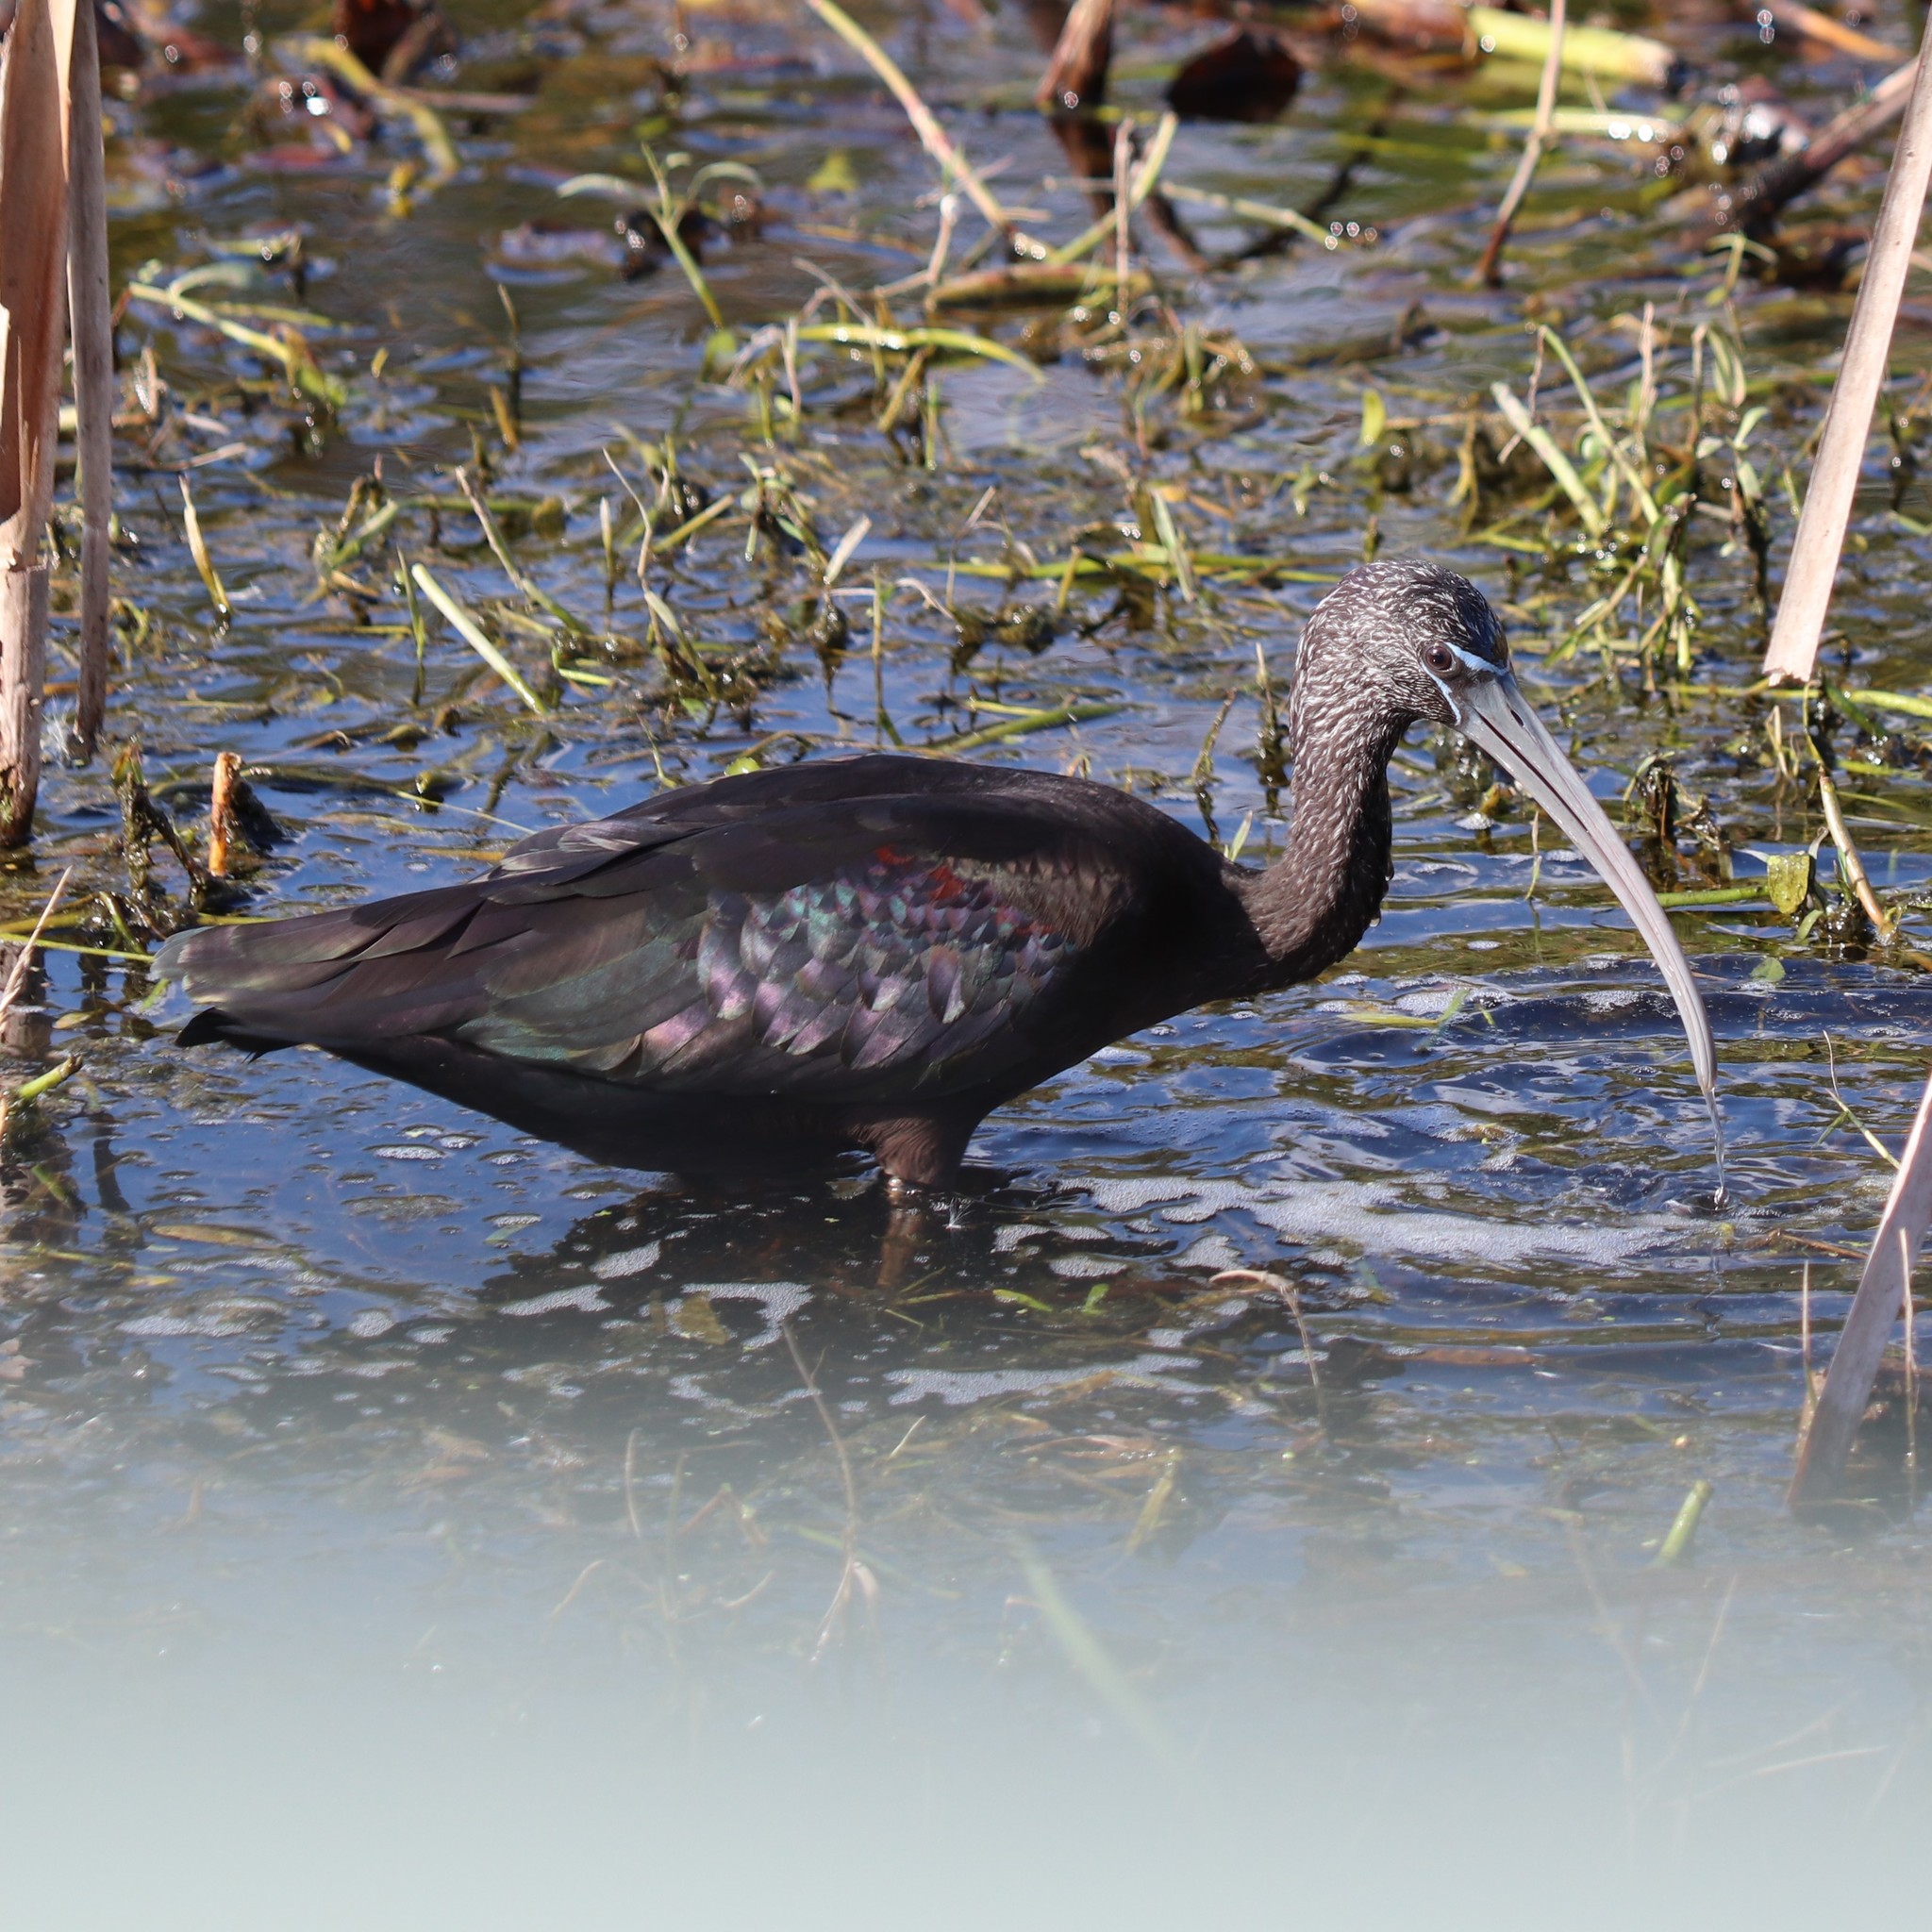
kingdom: Animalia
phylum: Chordata
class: Aves
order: Pelecaniformes
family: Threskiornithidae
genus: Plegadis
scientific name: Plegadis falcinellus
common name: Glossy ibis
